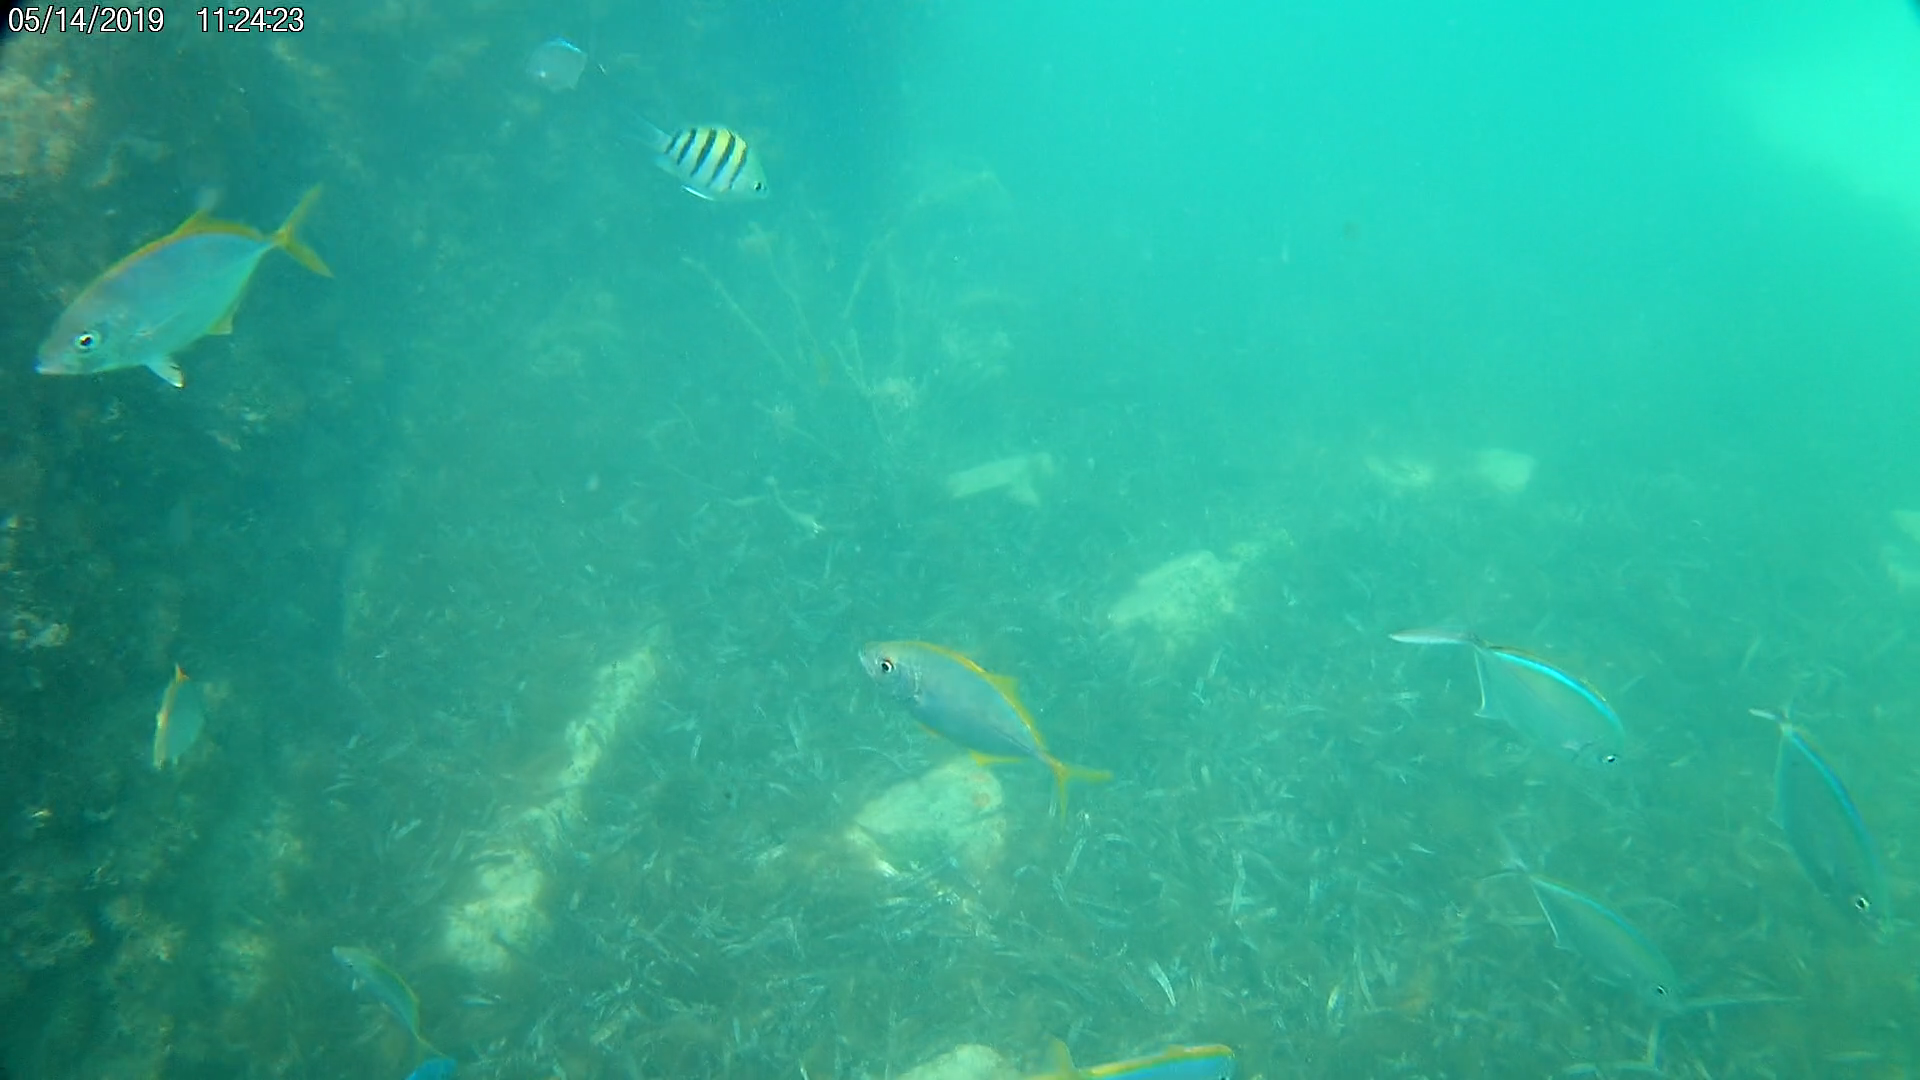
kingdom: Animalia
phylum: Chordata
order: Perciformes
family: Pomacentridae
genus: Abudefduf
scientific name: Abudefduf saxatilis
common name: Sergeant major
